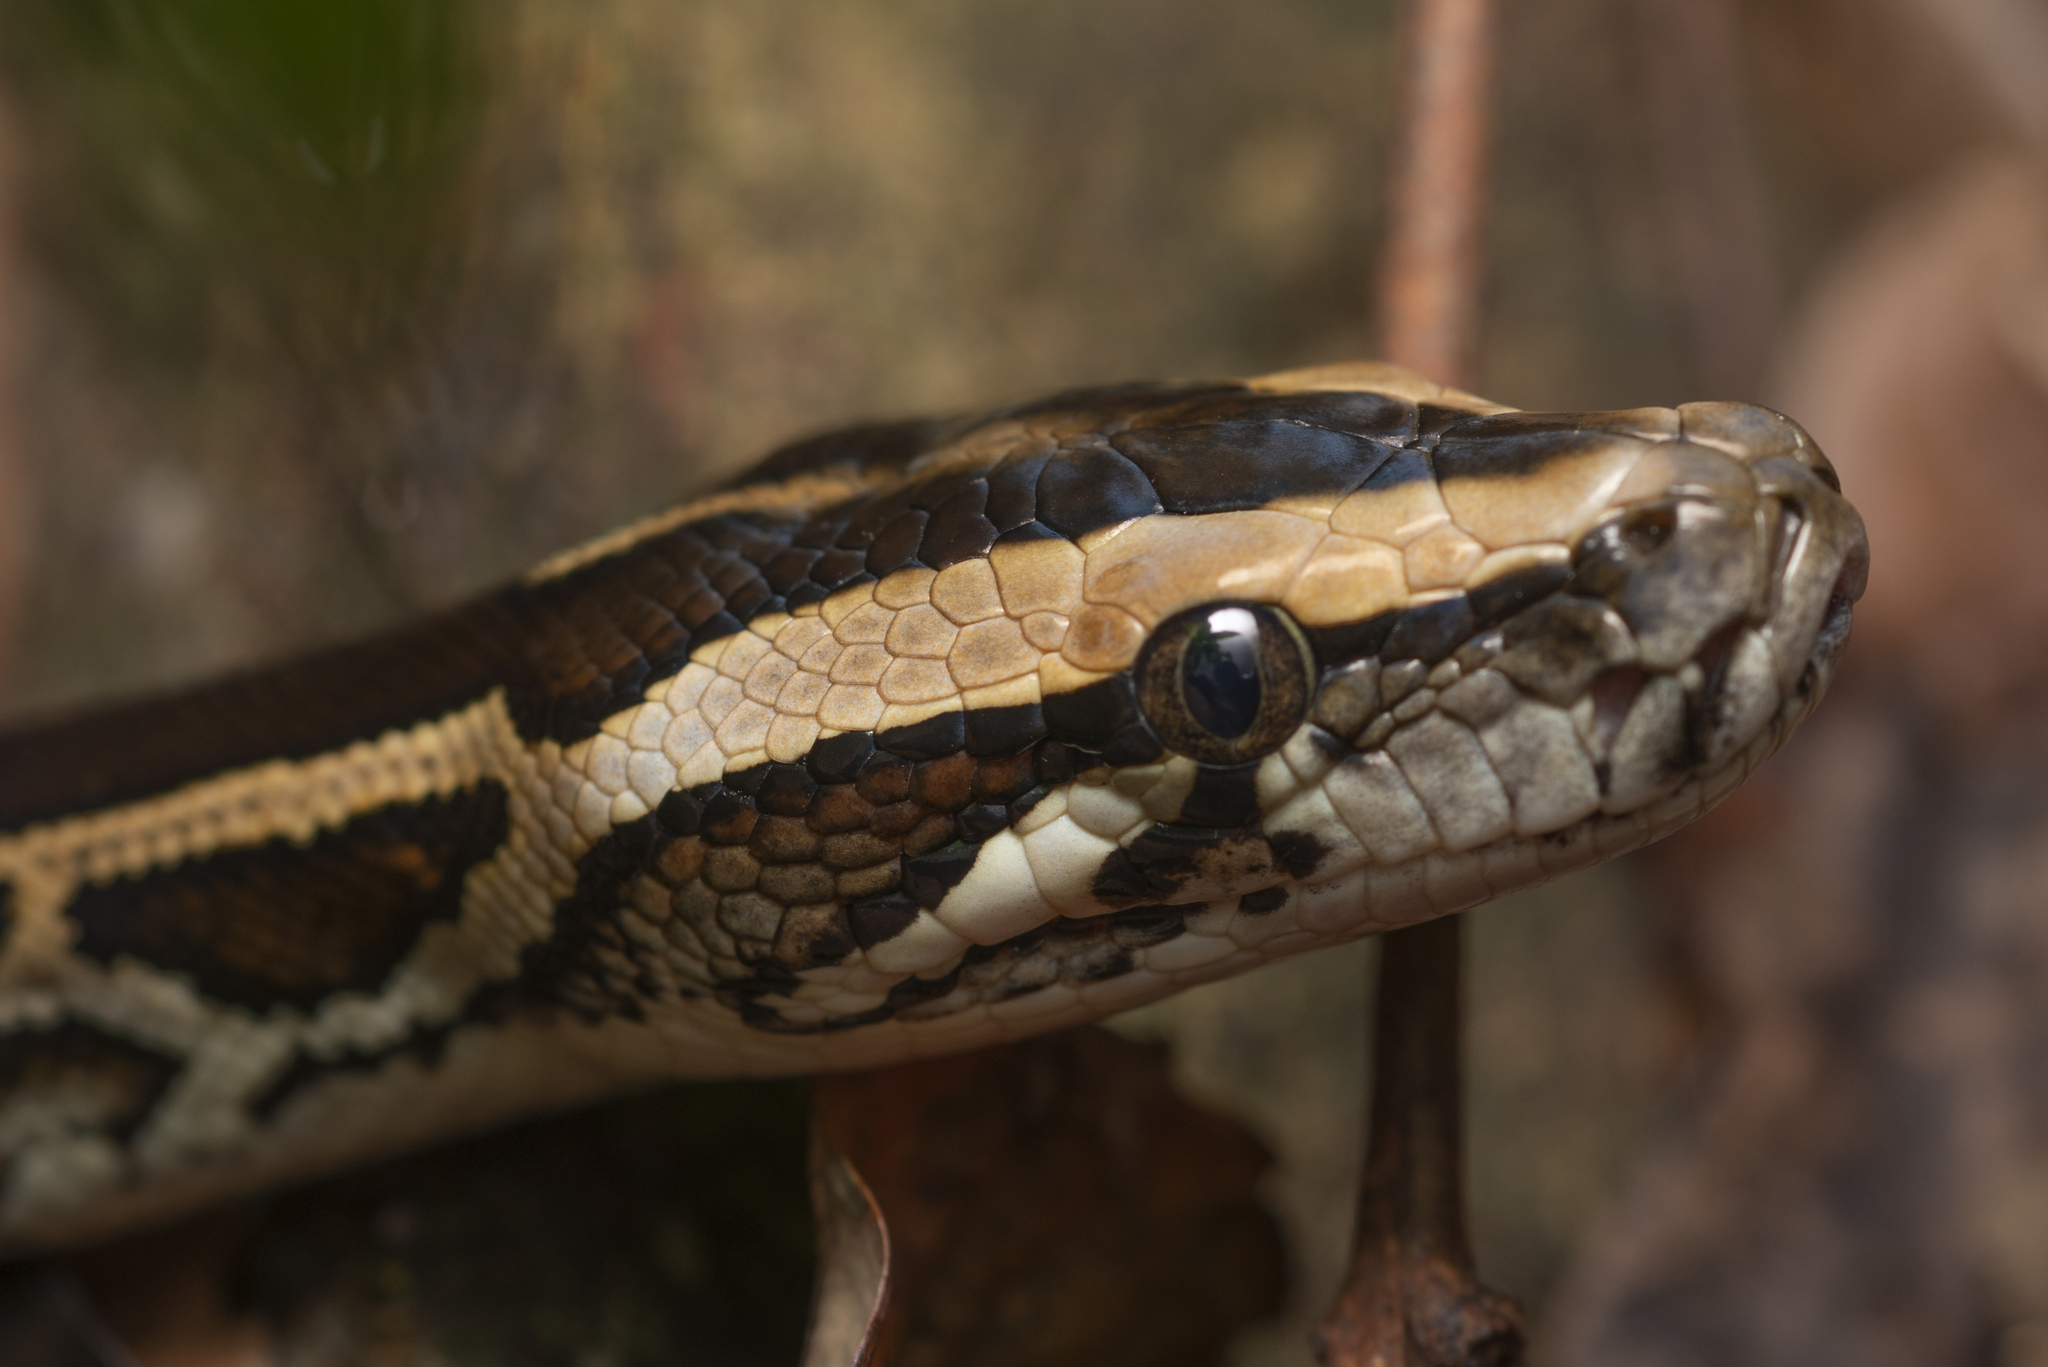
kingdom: Animalia
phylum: Chordata
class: Squamata
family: Pythonidae
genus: Python
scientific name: Python bivittatus
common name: Burmese python
